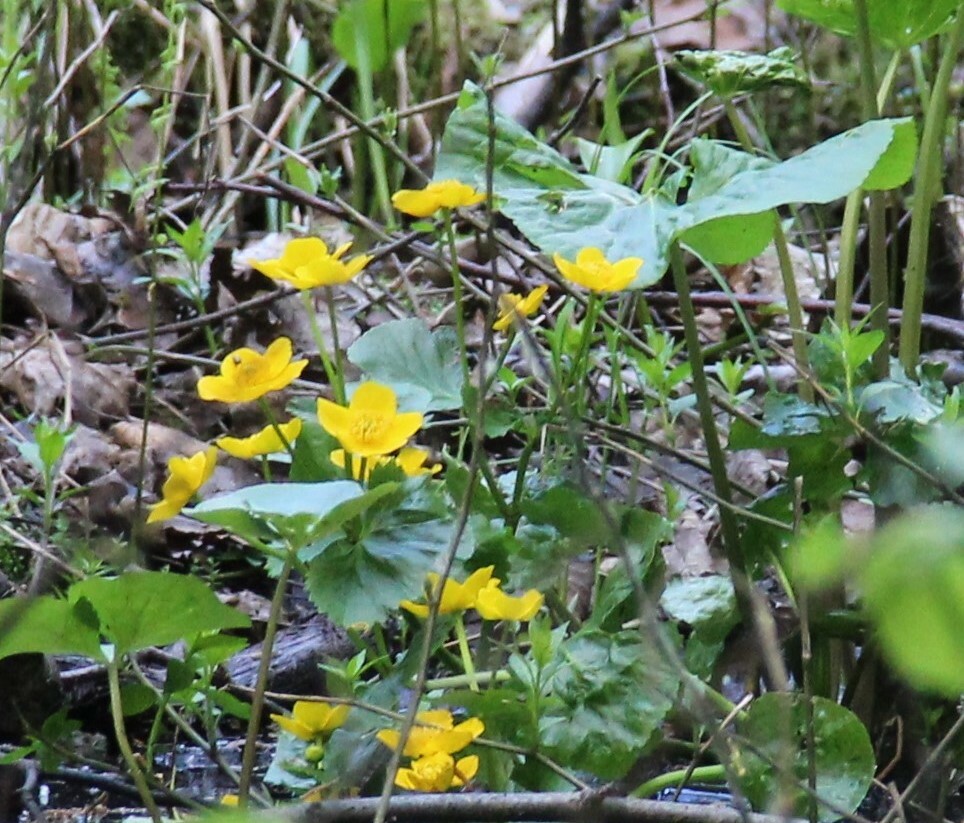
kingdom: Plantae
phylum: Tracheophyta
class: Magnoliopsida
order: Ranunculales
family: Ranunculaceae
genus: Caltha
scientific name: Caltha palustris
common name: Marsh marigold
